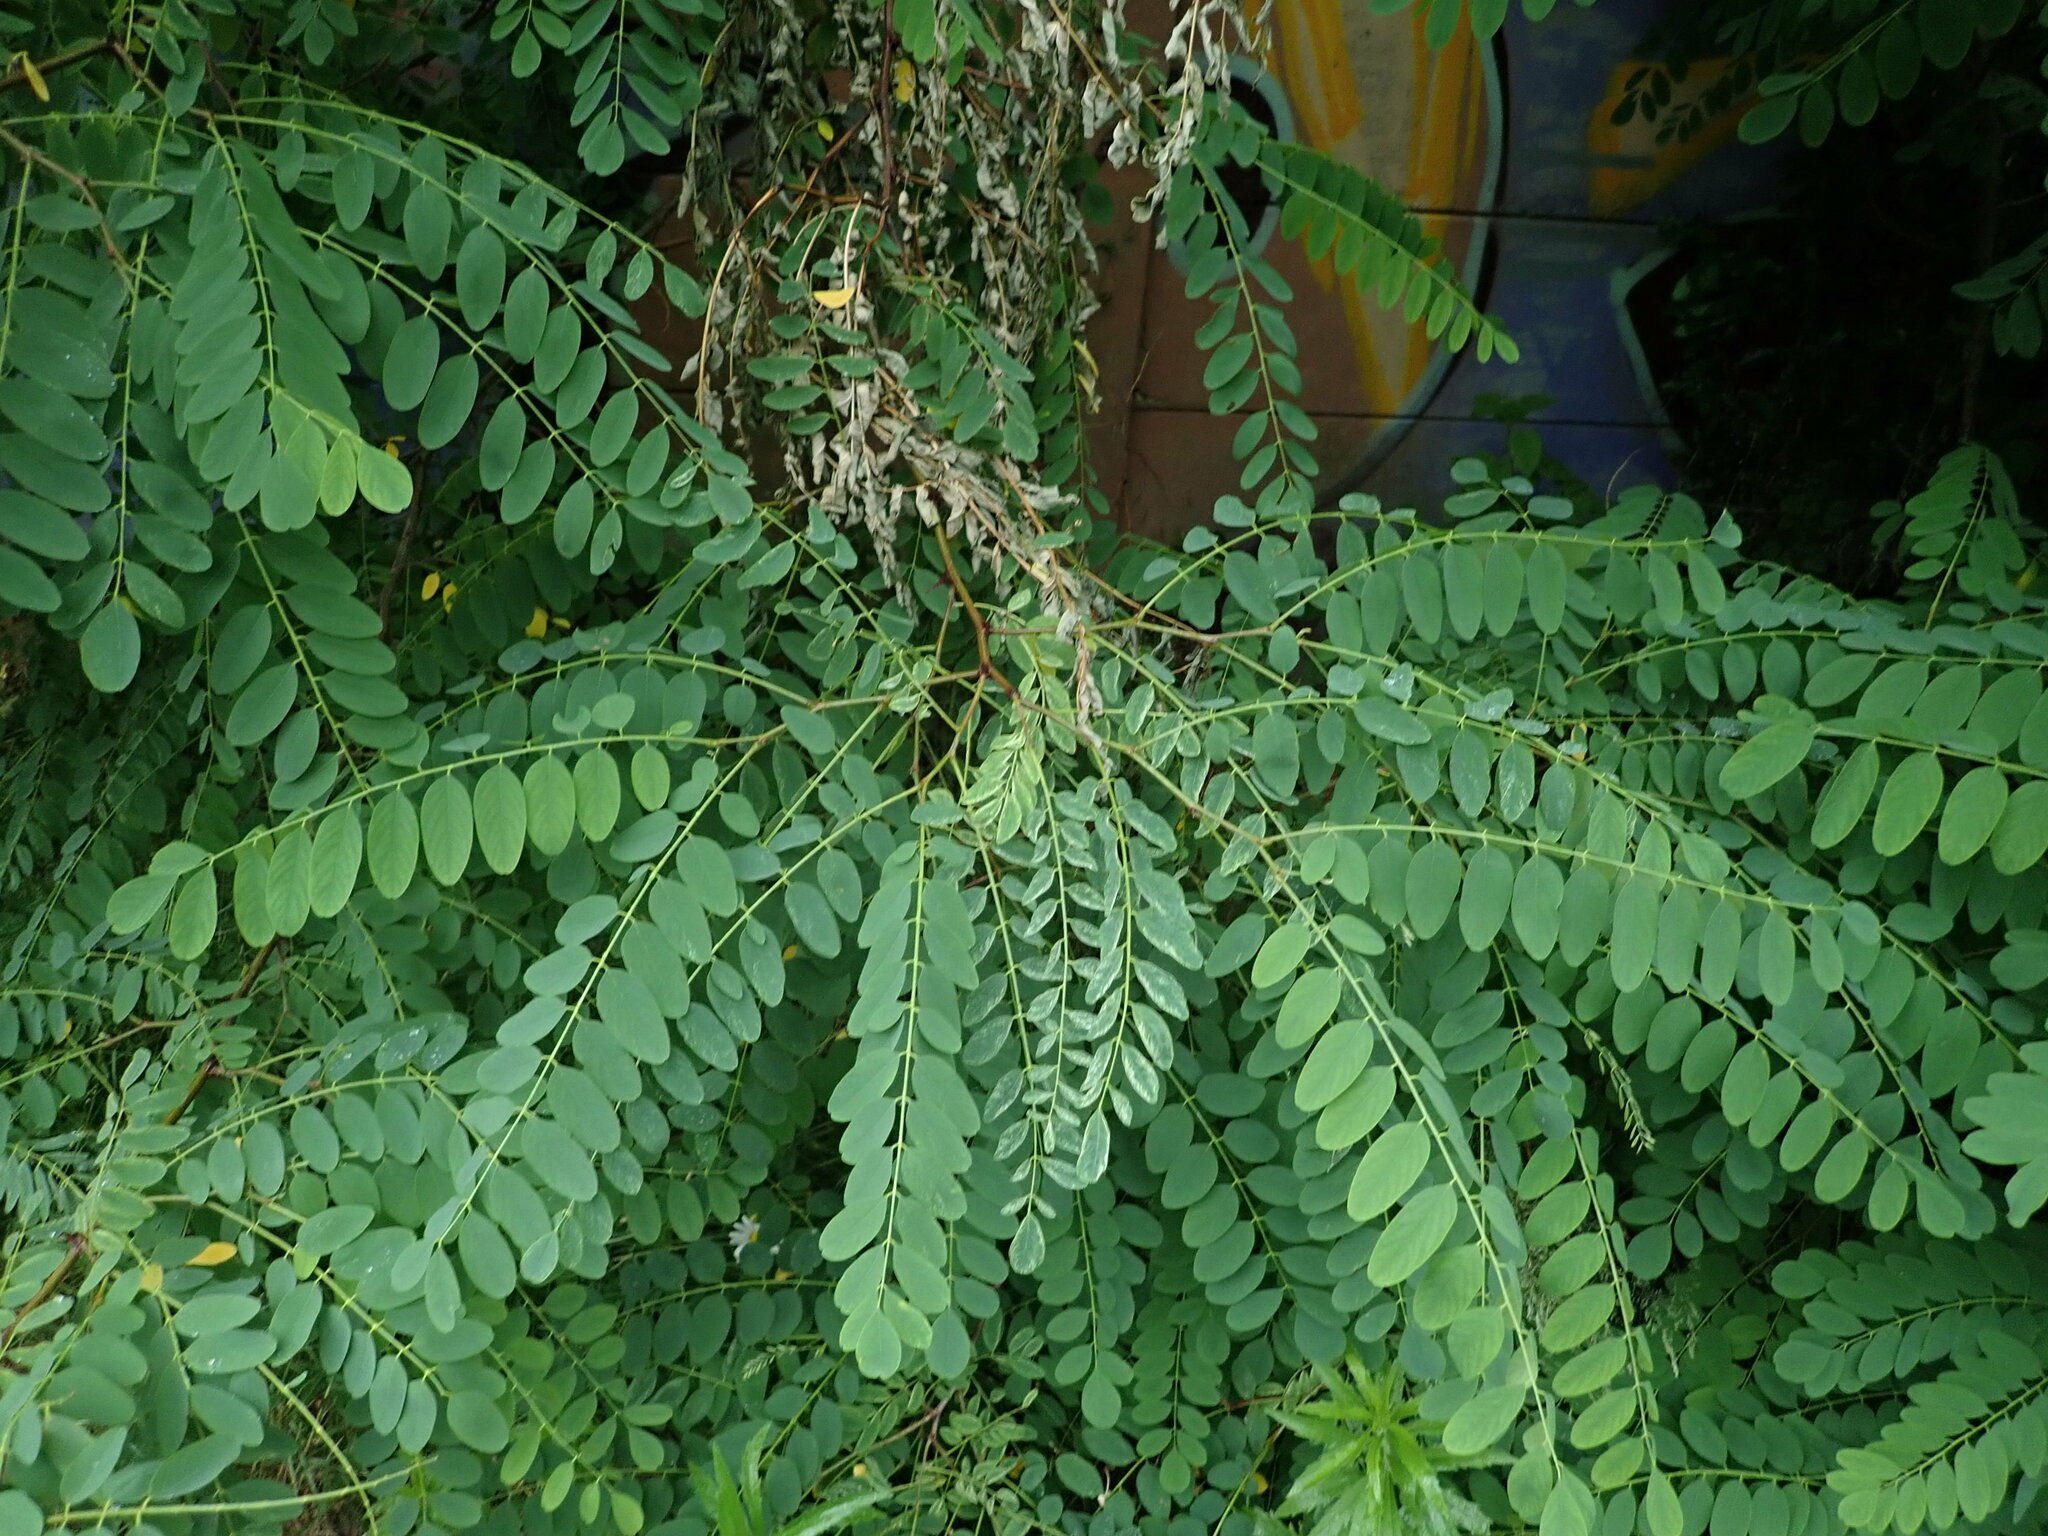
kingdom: Plantae
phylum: Tracheophyta
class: Magnoliopsida
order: Fabales
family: Fabaceae
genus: Robinia
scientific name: Robinia pseudoacacia
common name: Black locust
